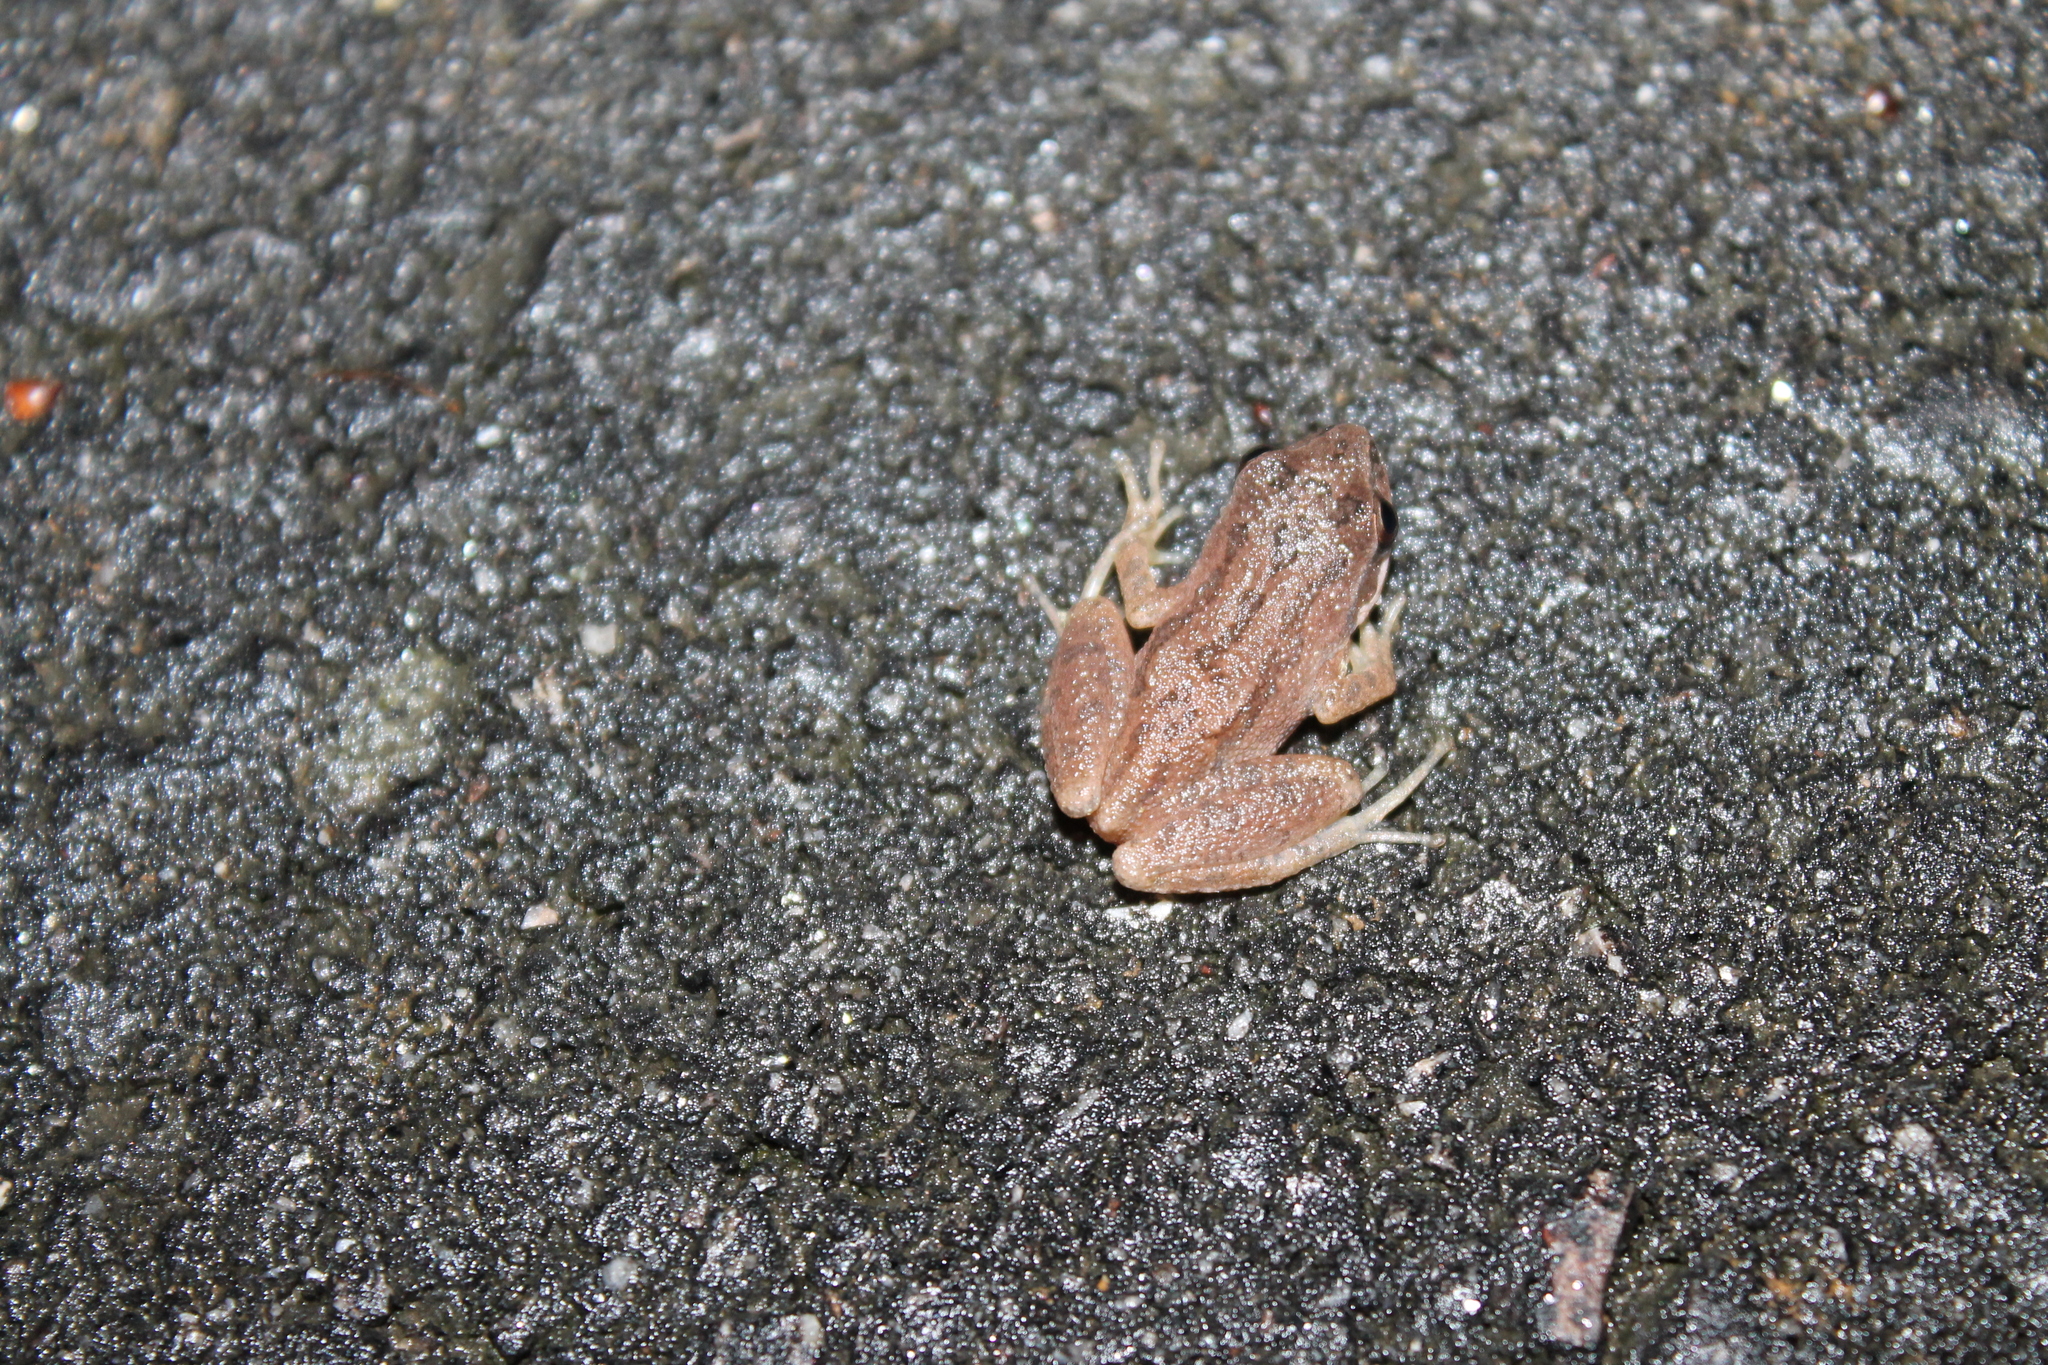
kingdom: Animalia
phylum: Chordata
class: Amphibia
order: Anura
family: Hylidae
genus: Pseudacris
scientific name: Pseudacris feriarum
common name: Upland chorus frog
